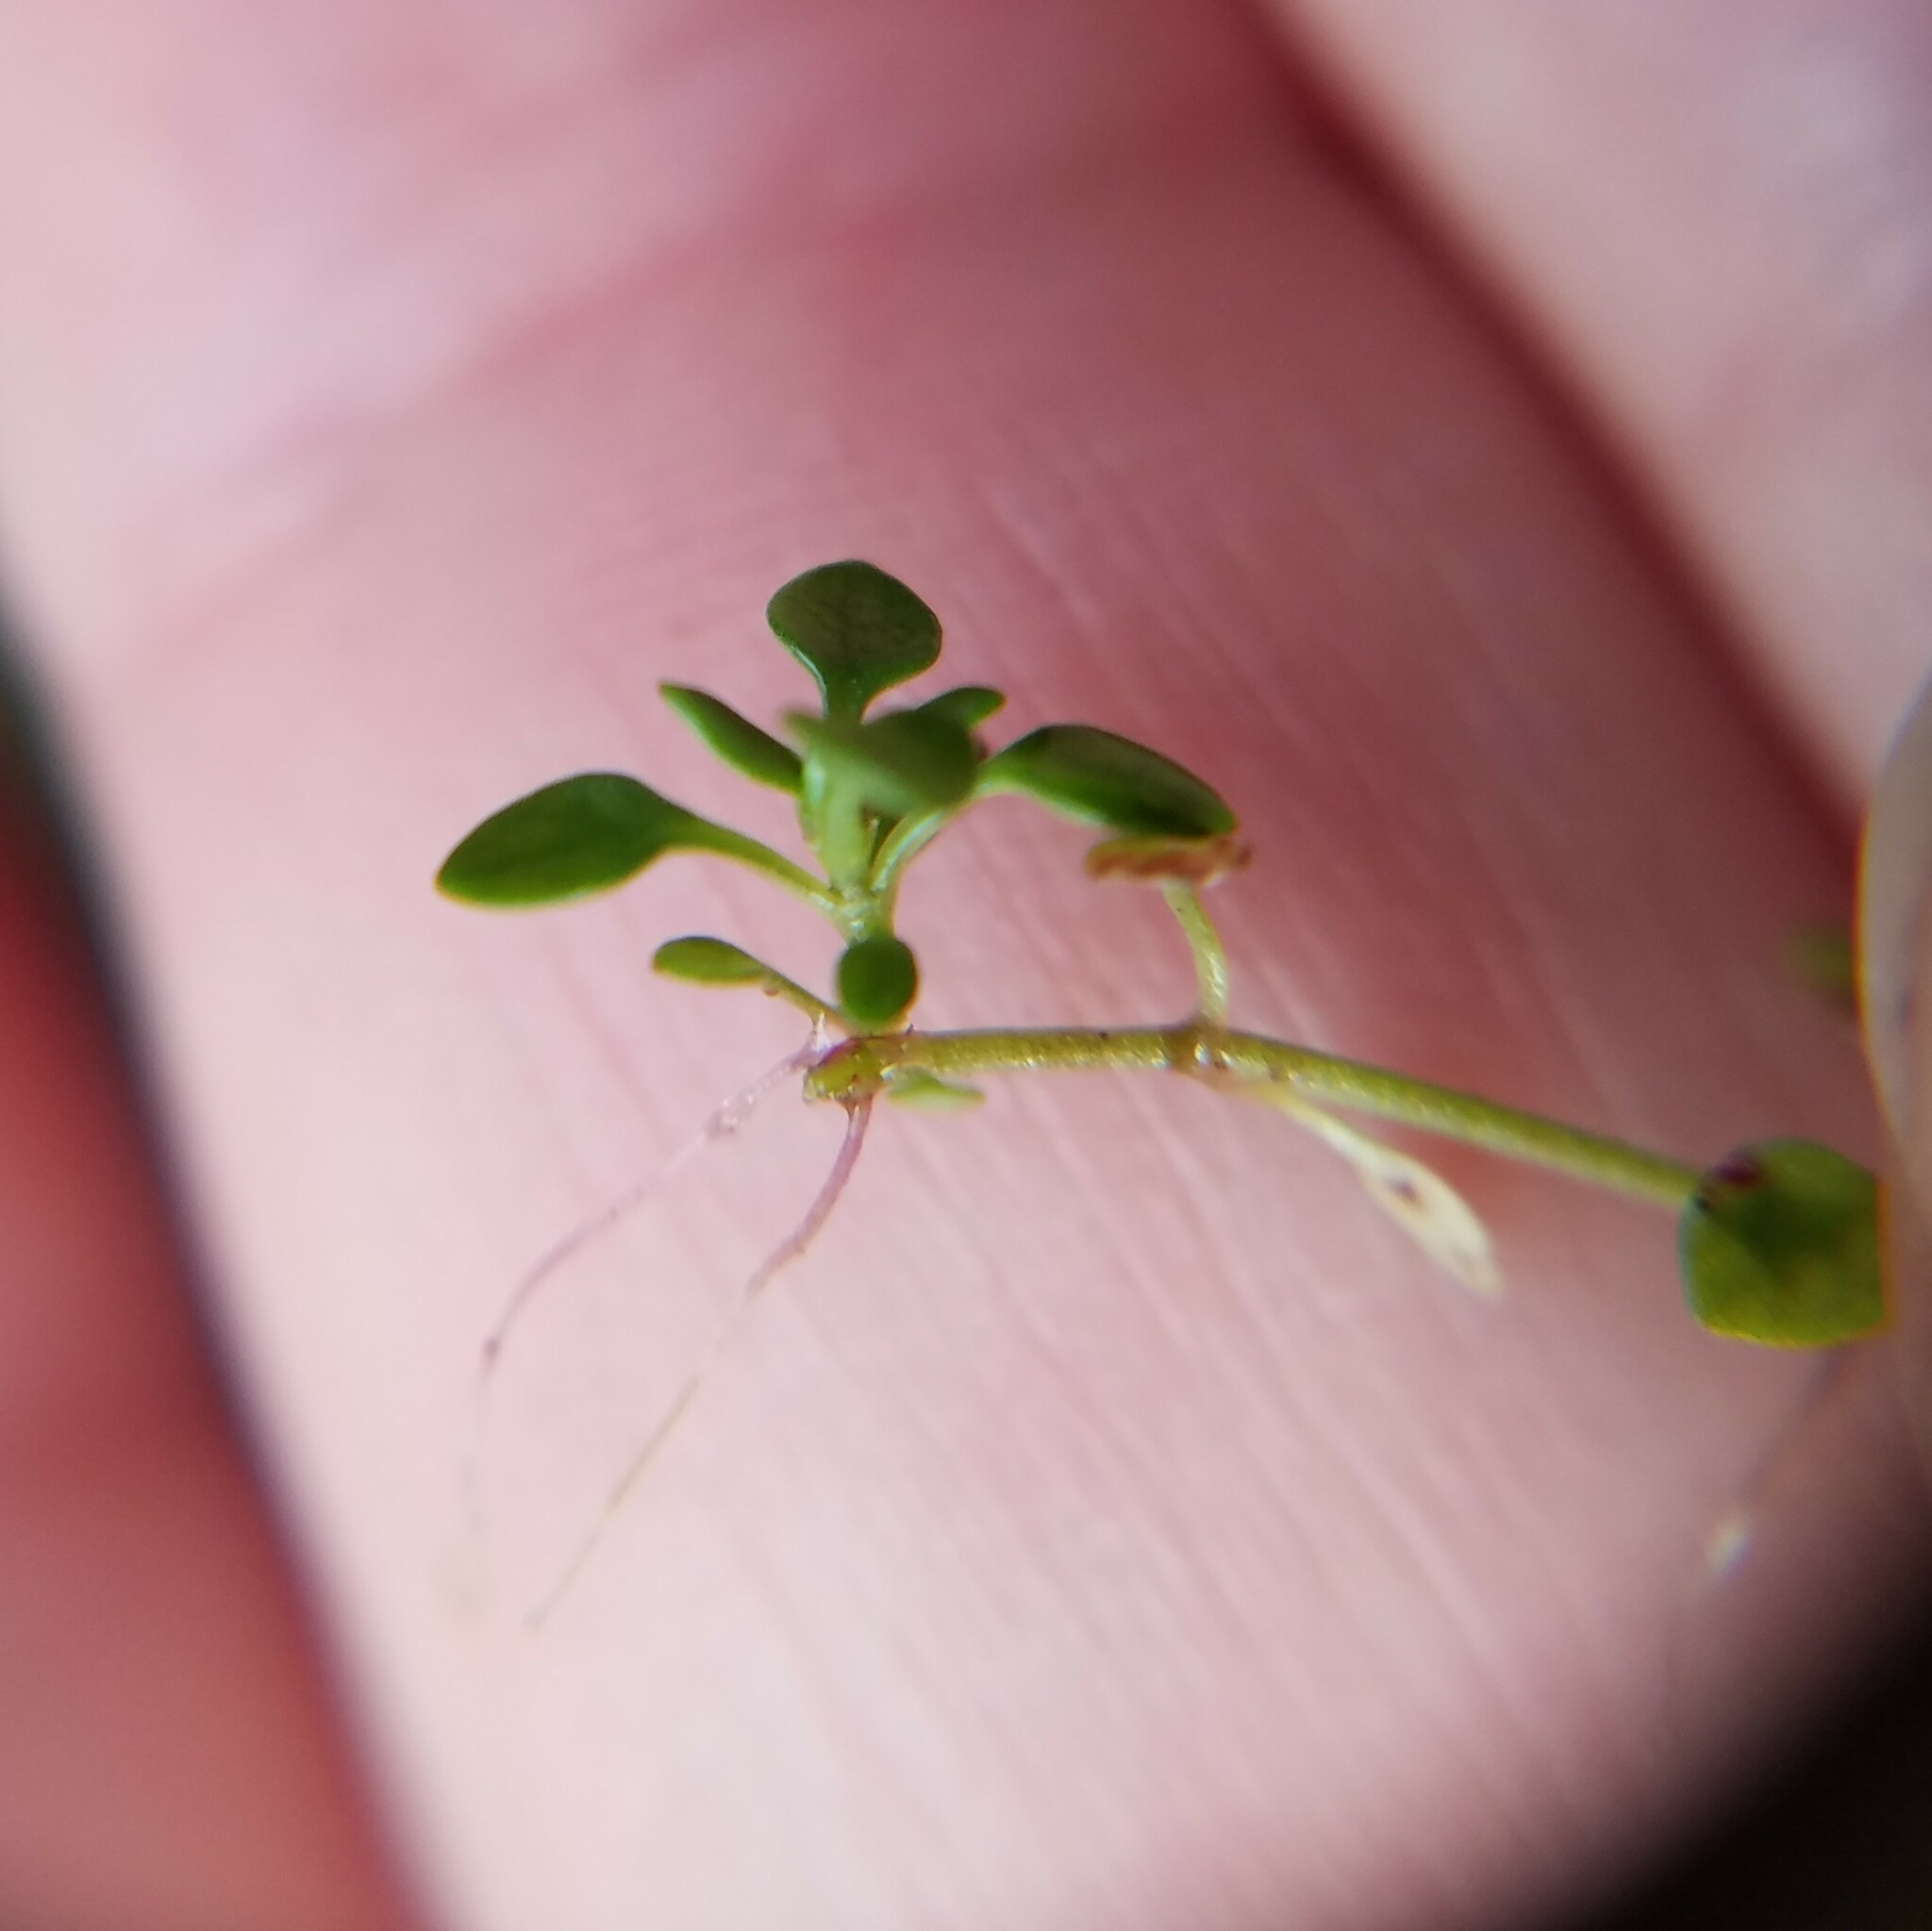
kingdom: Plantae
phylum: Tracheophyta
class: Magnoliopsida
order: Gentianales
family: Rubiaceae
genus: Houstonia
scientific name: Houstonia serpyllifolia
